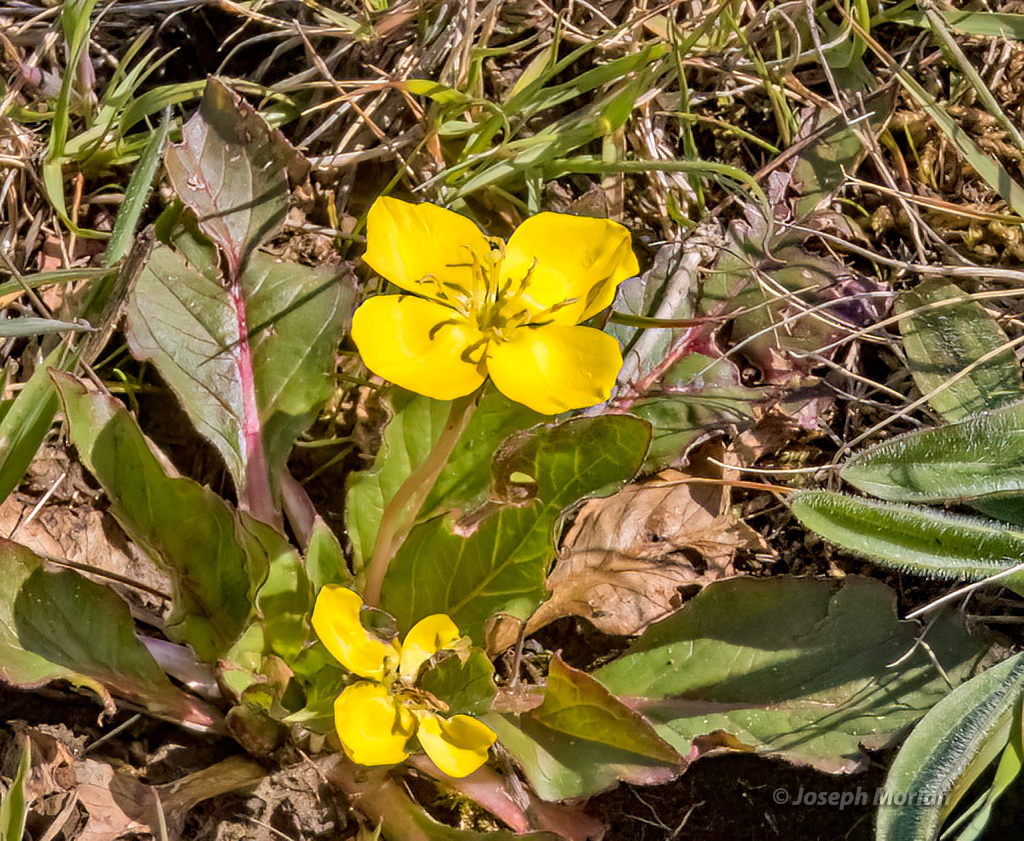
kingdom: Plantae
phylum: Tracheophyta
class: Magnoliopsida
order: Myrtales
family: Onagraceae
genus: Taraxia
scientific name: Taraxia ovata
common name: Goldeneggs
